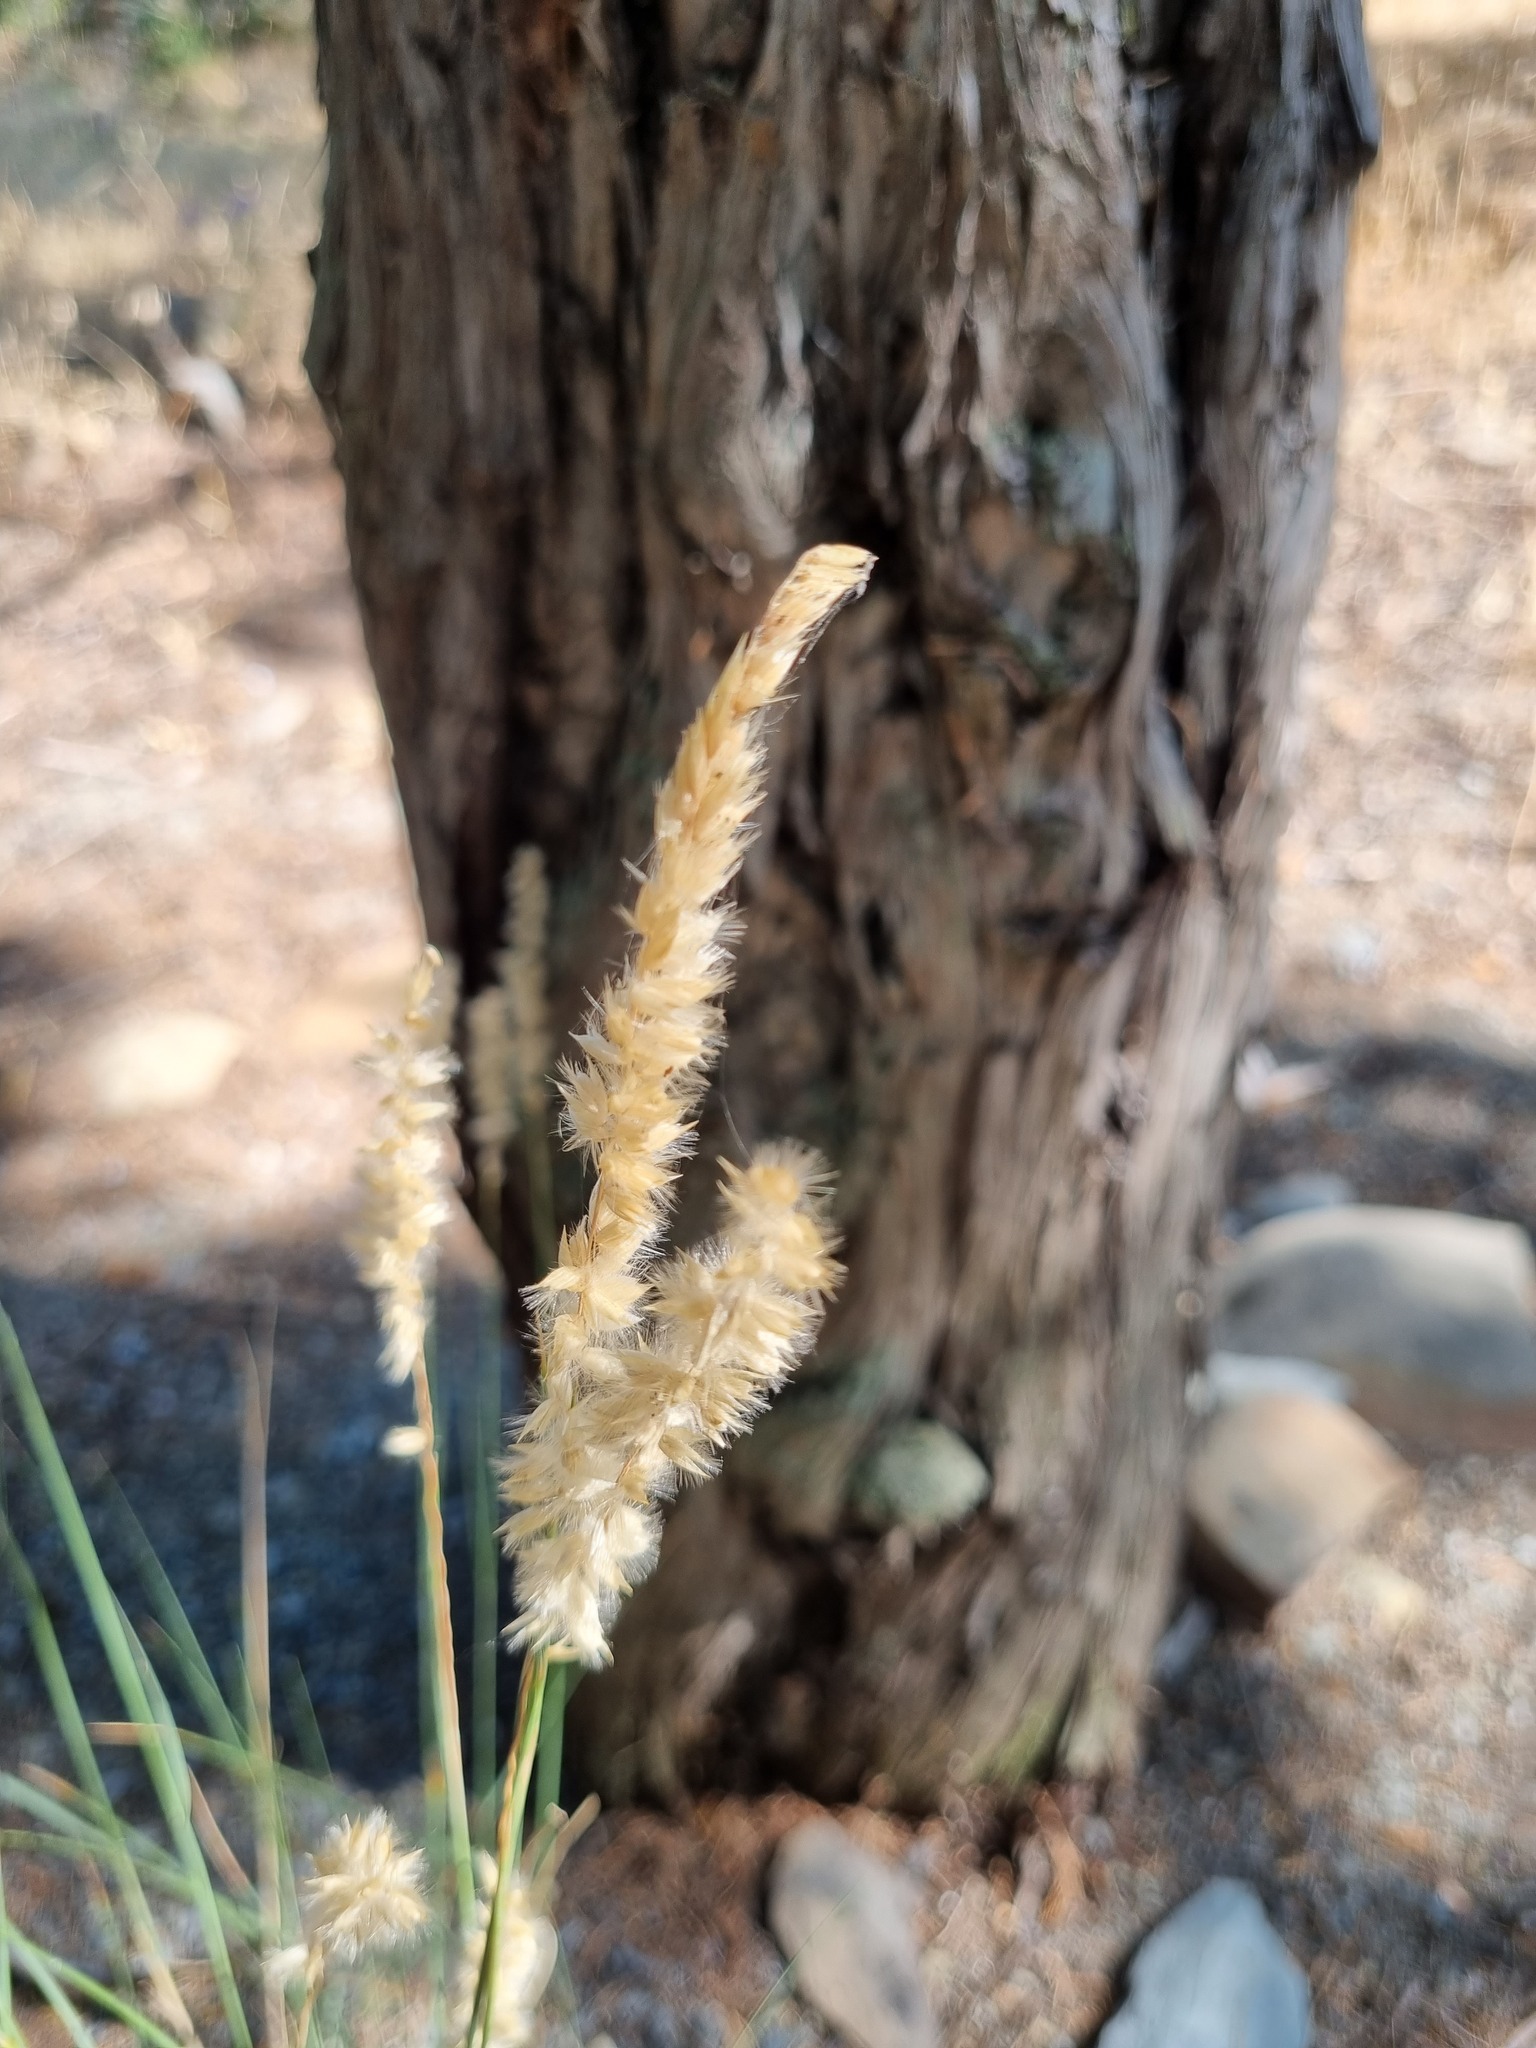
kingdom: Plantae
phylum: Tracheophyta
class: Liliopsida
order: Poales
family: Poaceae
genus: Melica
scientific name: Melica transsilvanica
